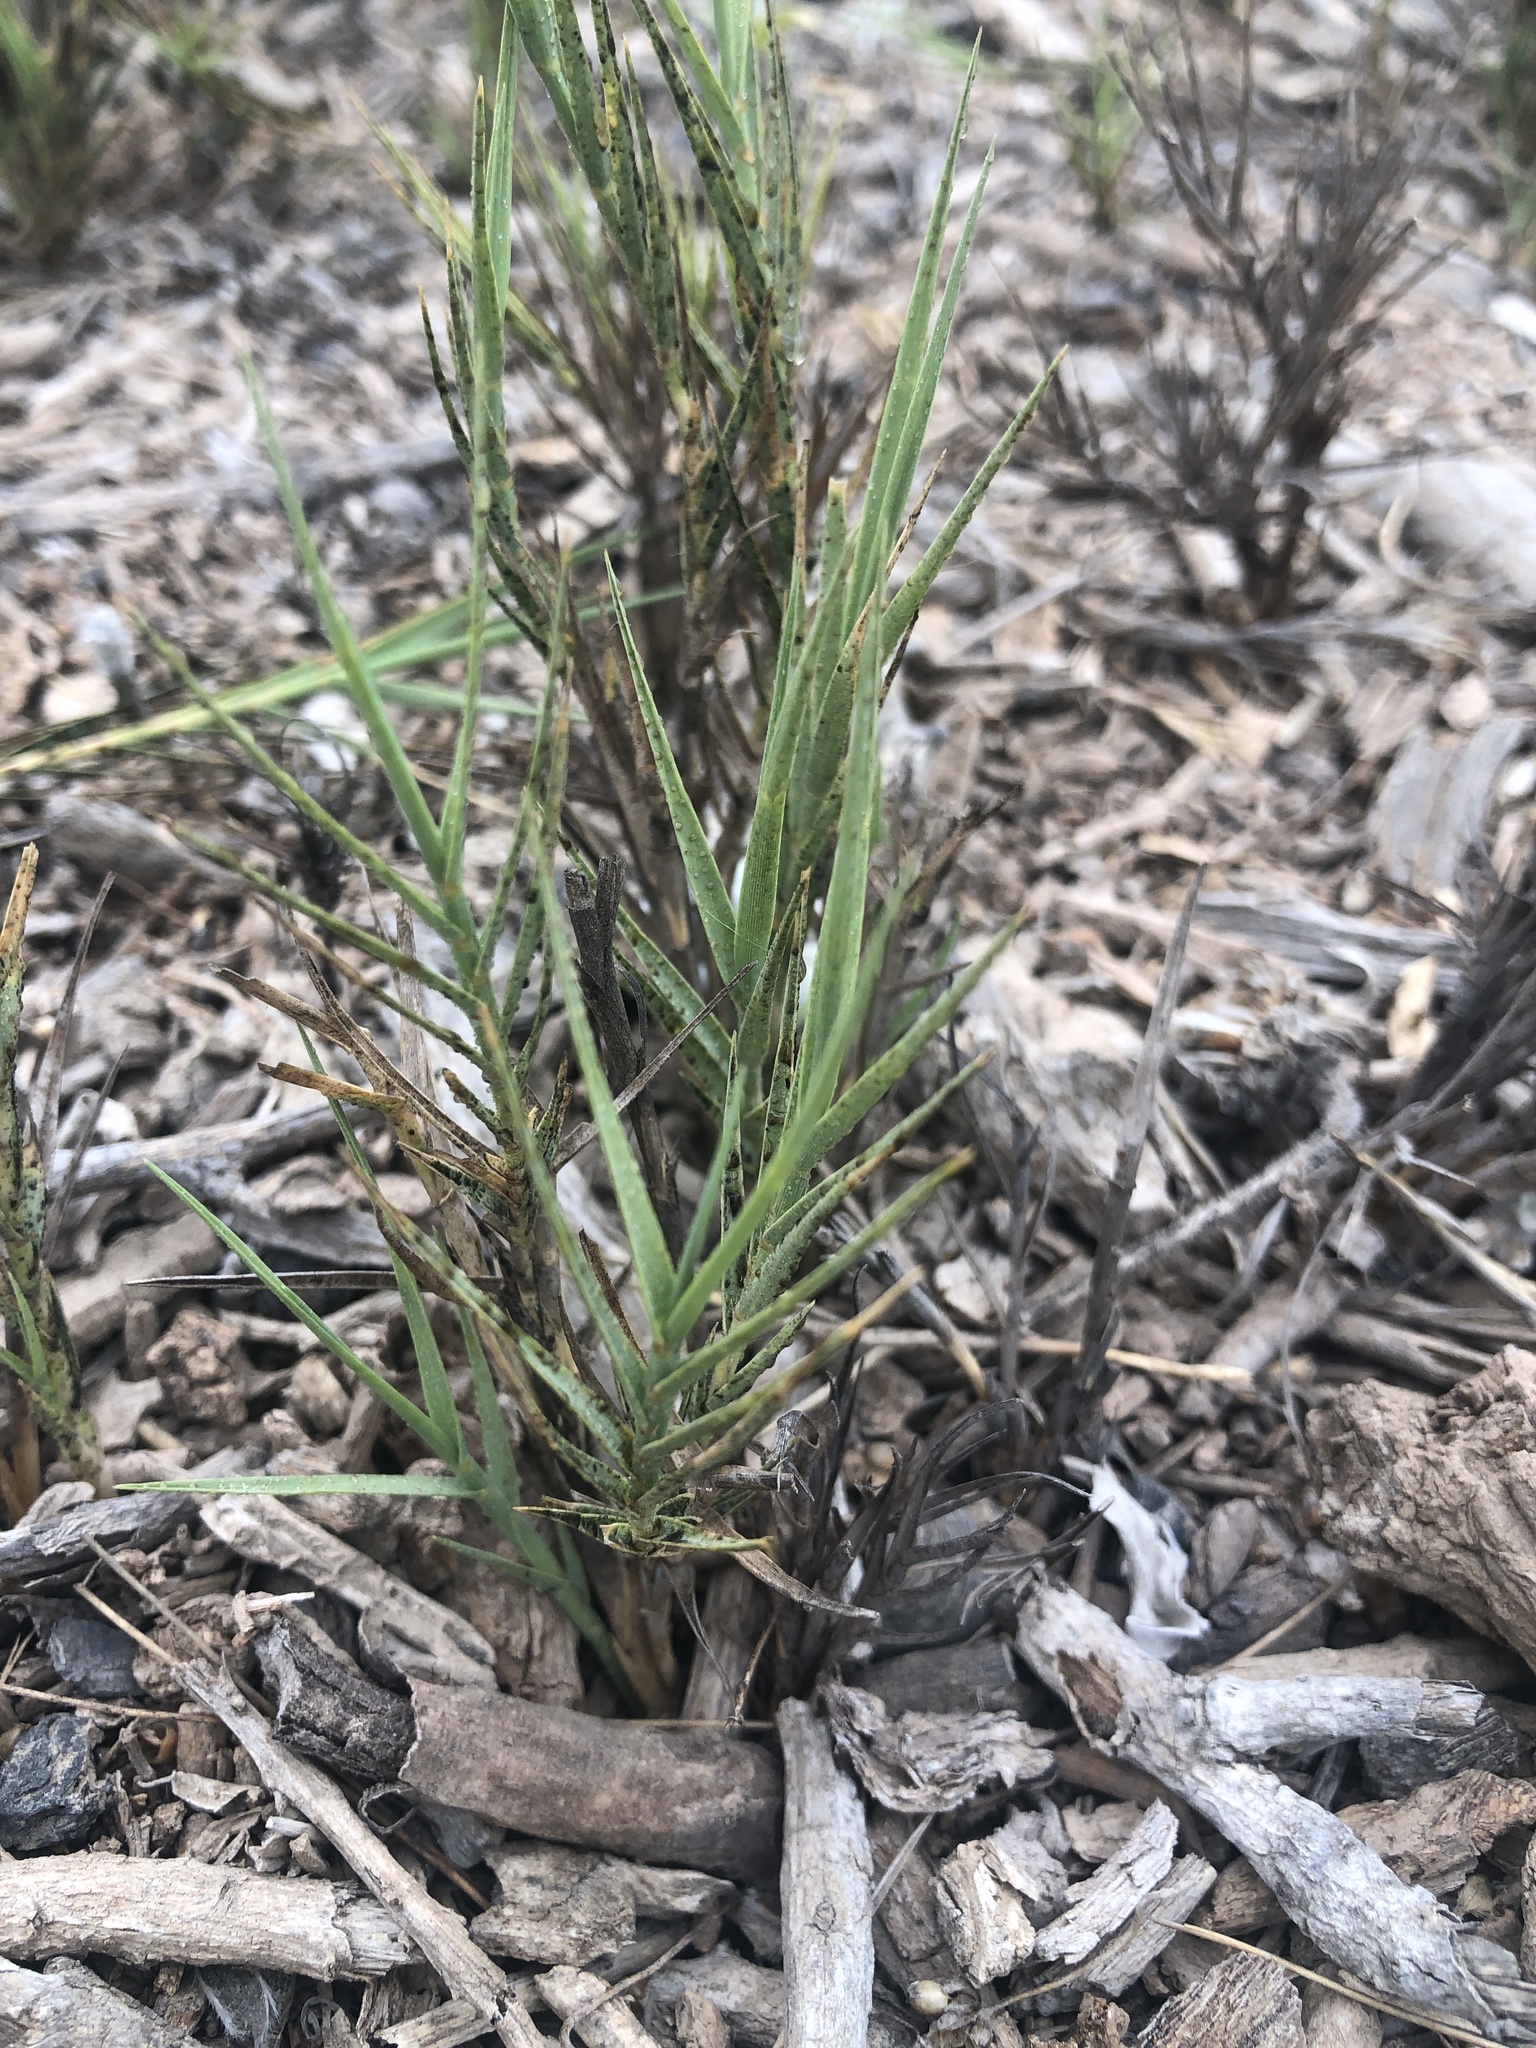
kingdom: Plantae
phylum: Tracheophyta
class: Liliopsida
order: Poales
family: Poaceae
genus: Distichlis
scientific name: Distichlis spicata
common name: Saltgrass
